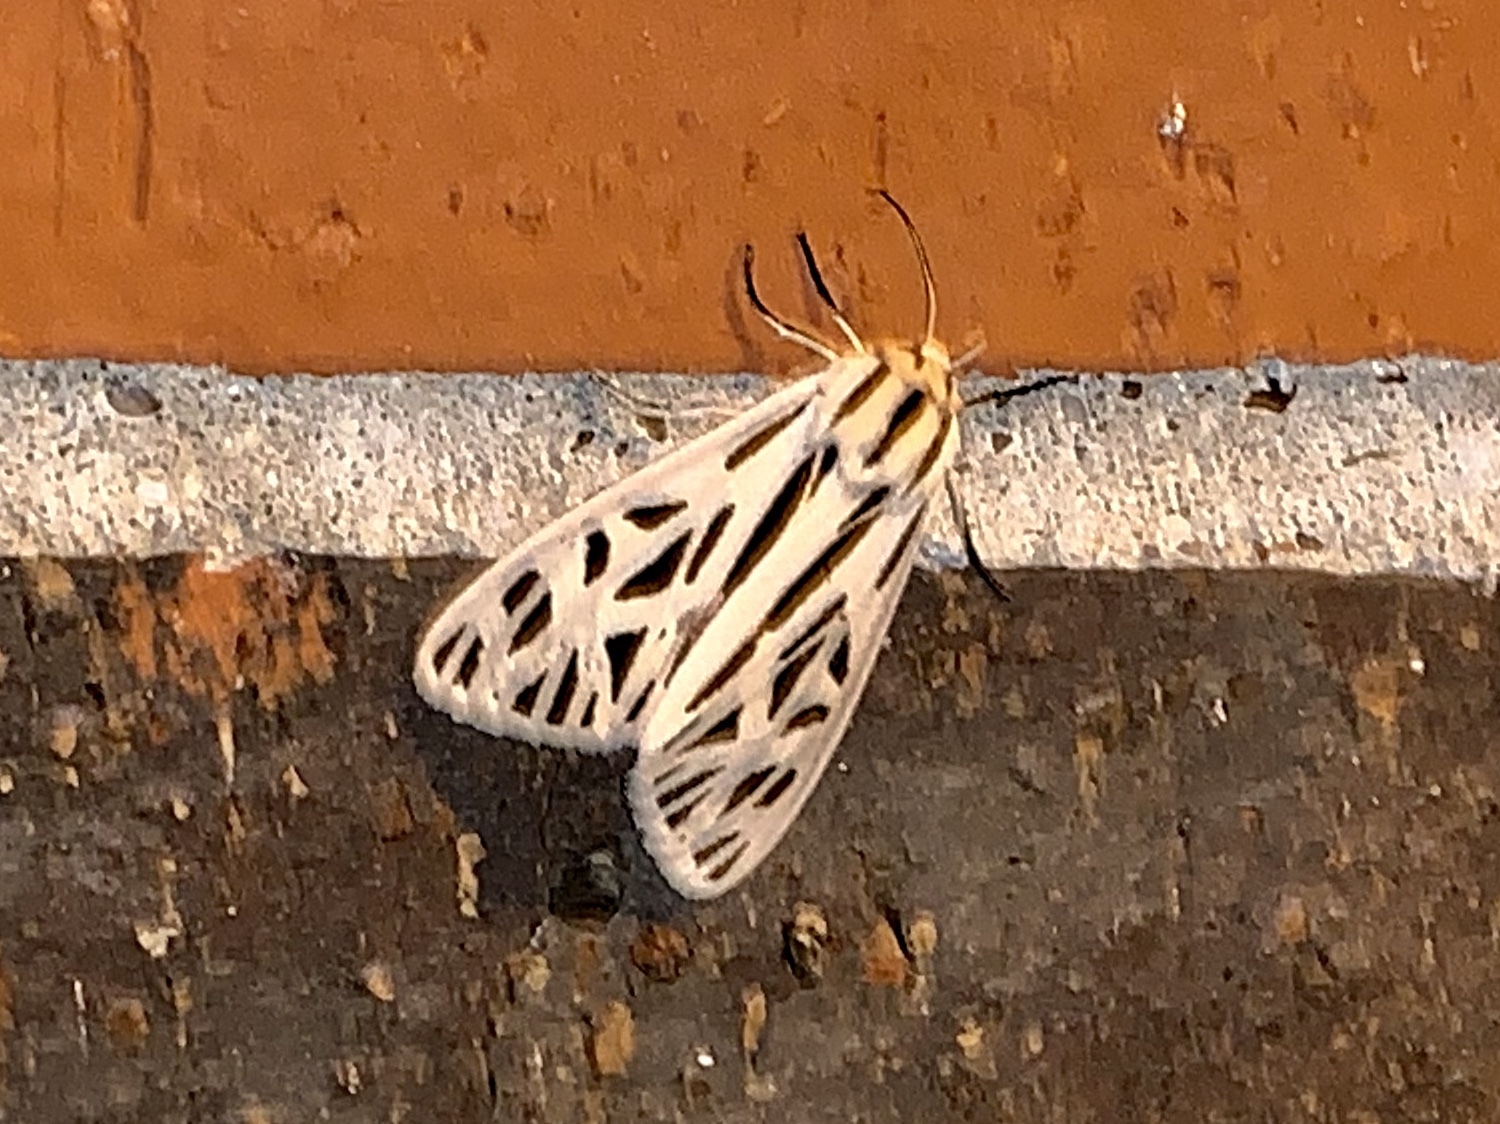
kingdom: Animalia
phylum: Arthropoda
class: Insecta
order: Lepidoptera
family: Erebidae
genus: Apantesis
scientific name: Apantesis arge
